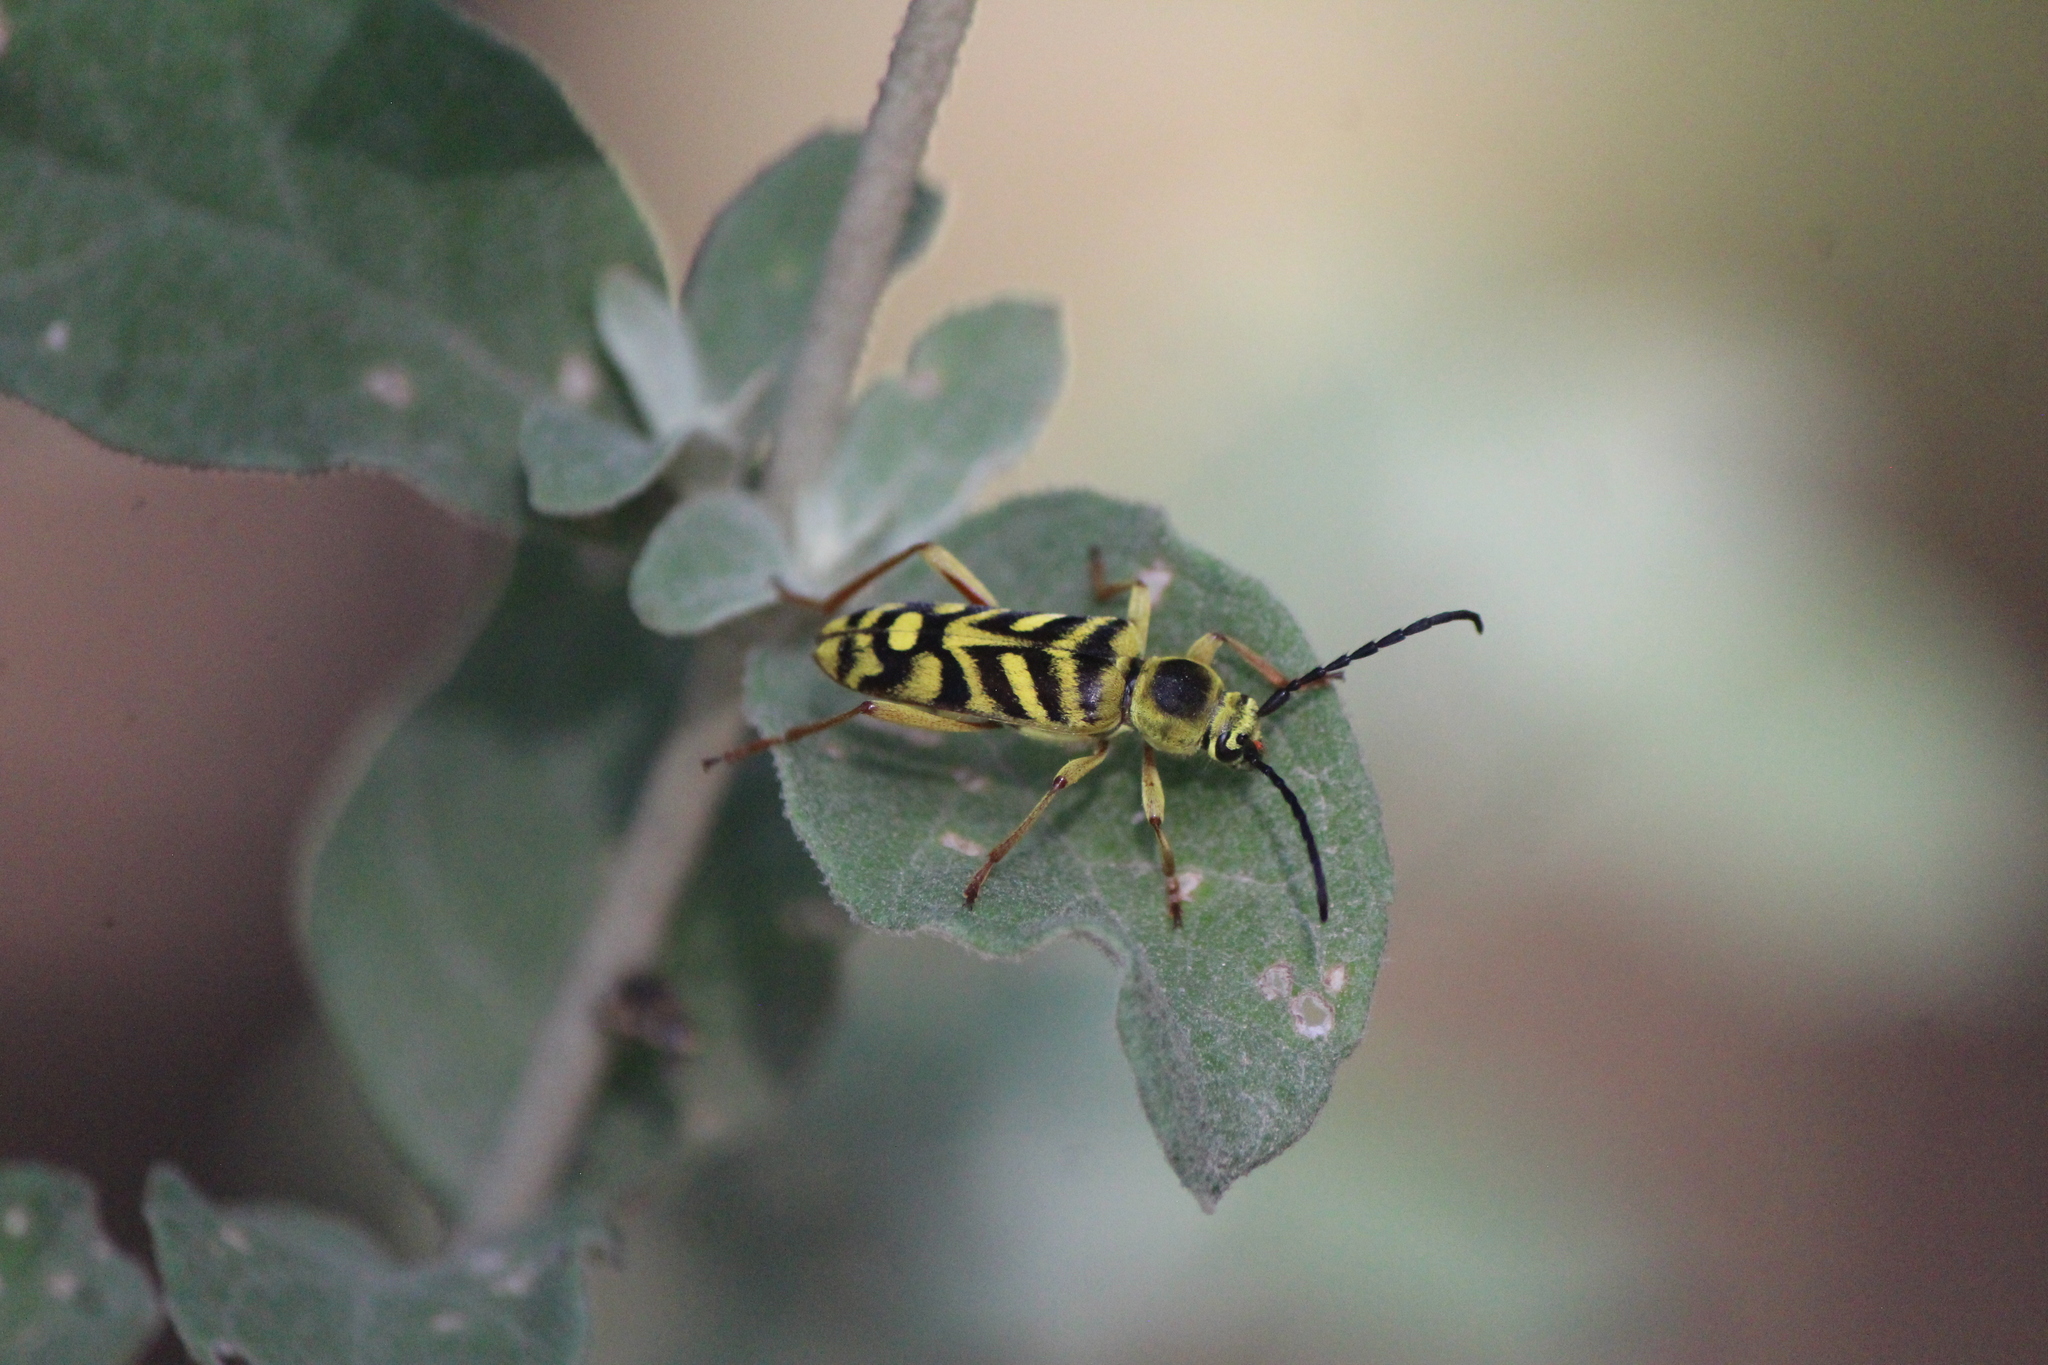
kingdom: Animalia
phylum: Arthropoda
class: Insecta
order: Coleoptera
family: Cerambycidae
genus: Ochraethes
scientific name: Ochraethes obliquus
